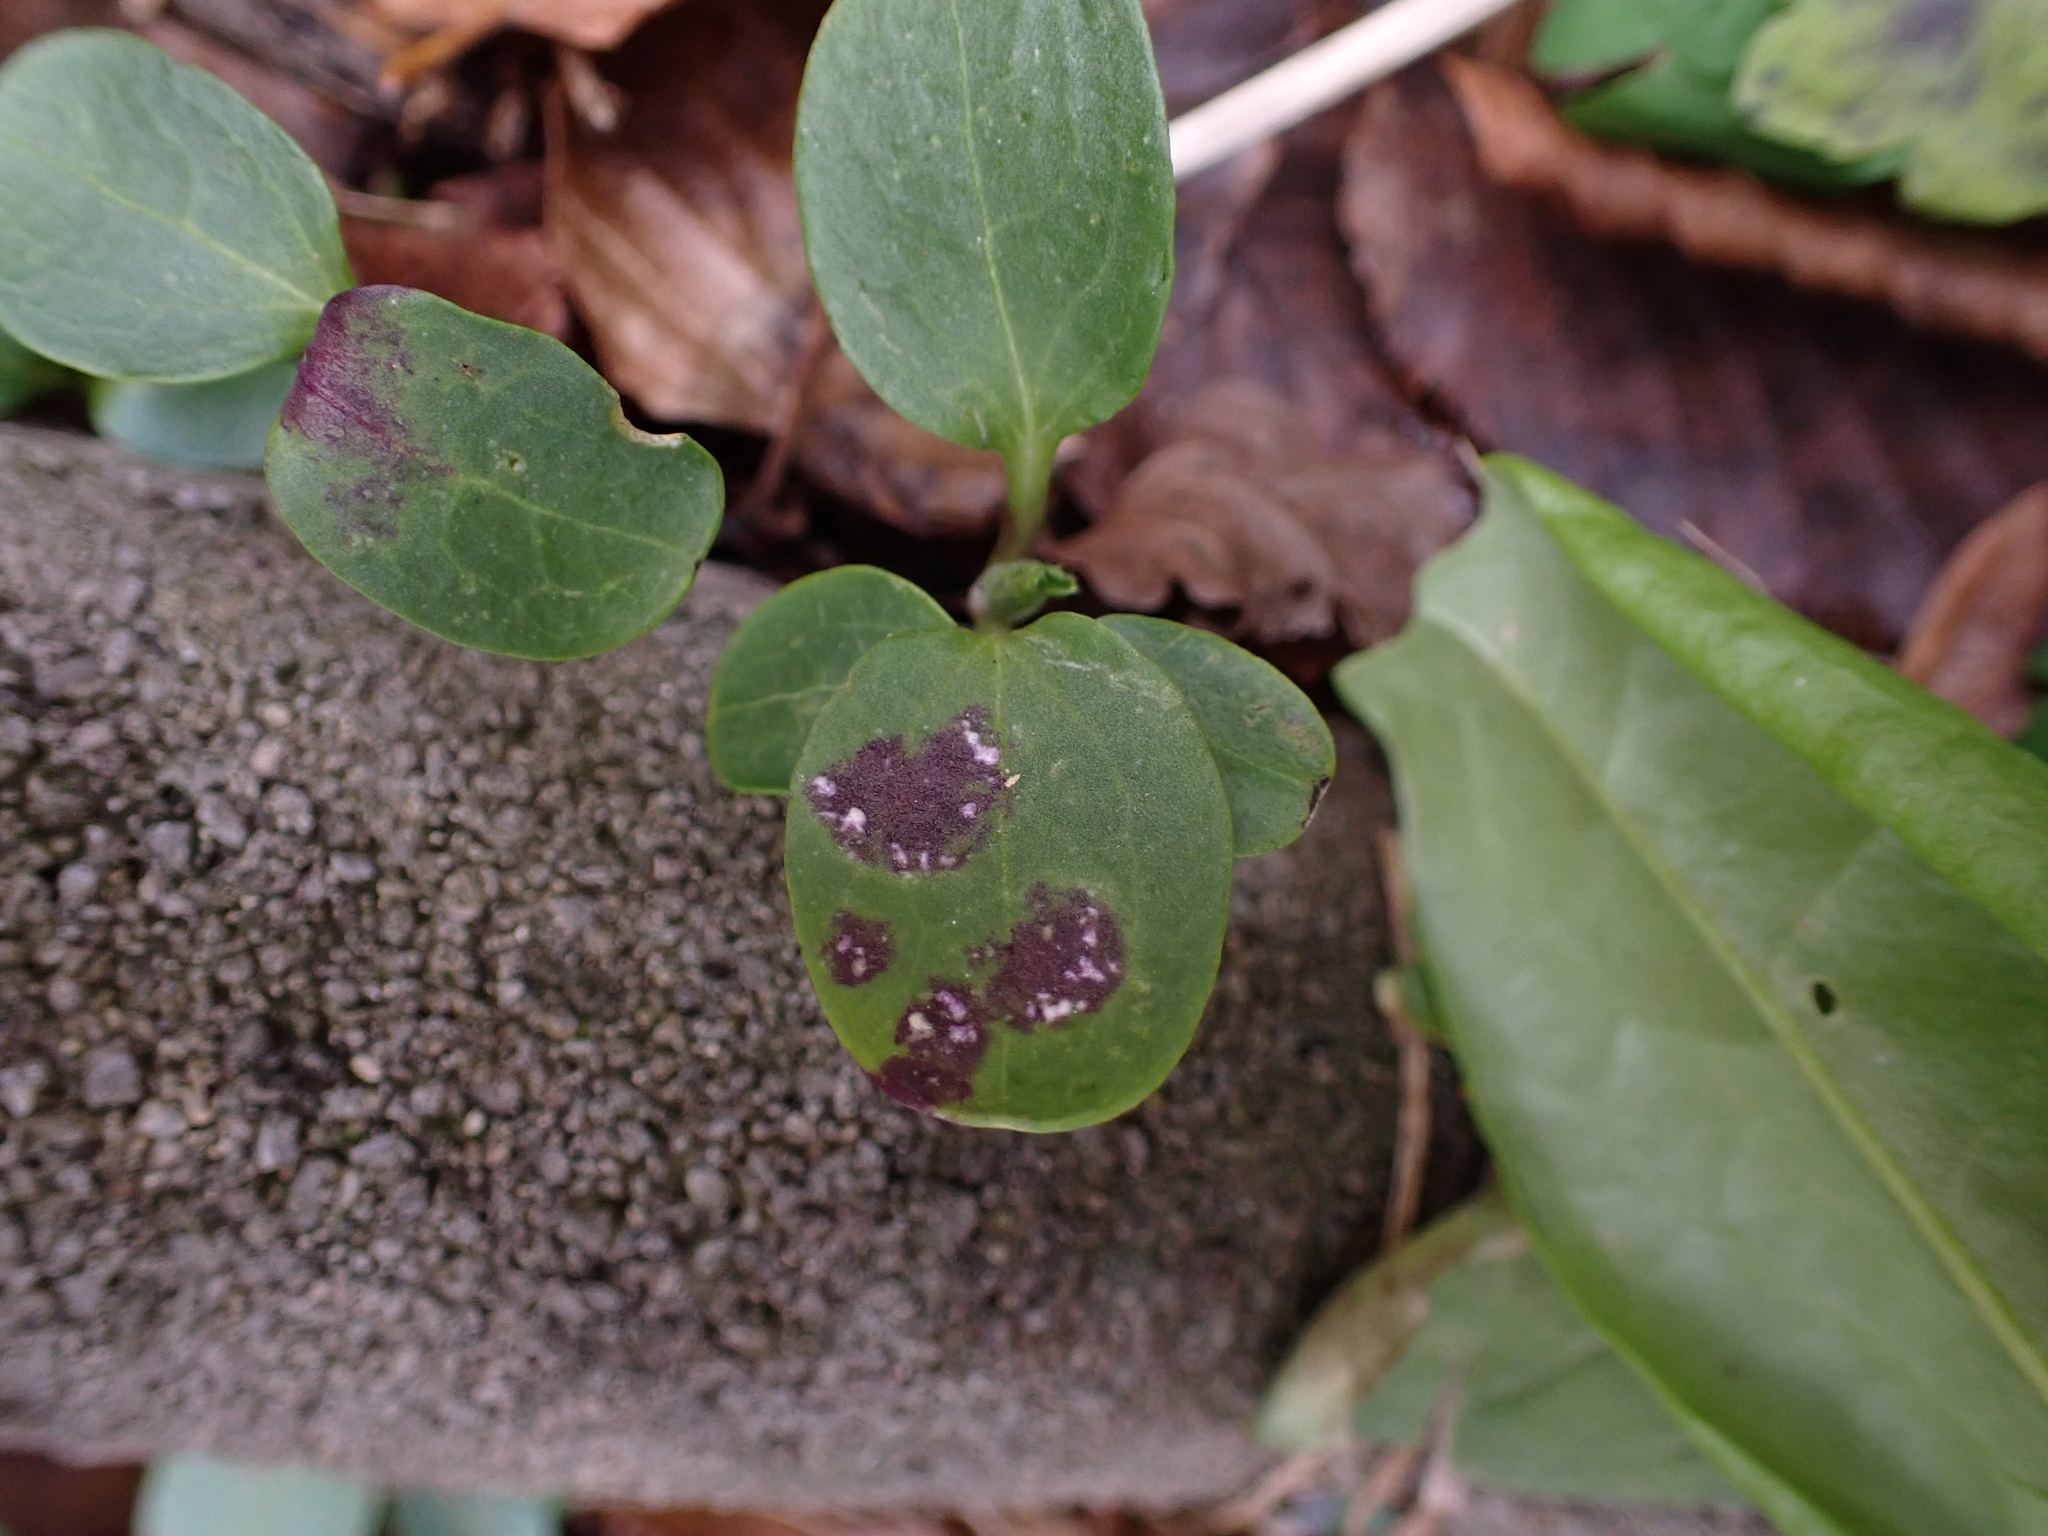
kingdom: Chromista
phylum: Oomycota
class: Peronosporea
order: Albuginales
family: Albuginaceae
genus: Albugo
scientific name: Albugo candida
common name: Crucifer white blister
